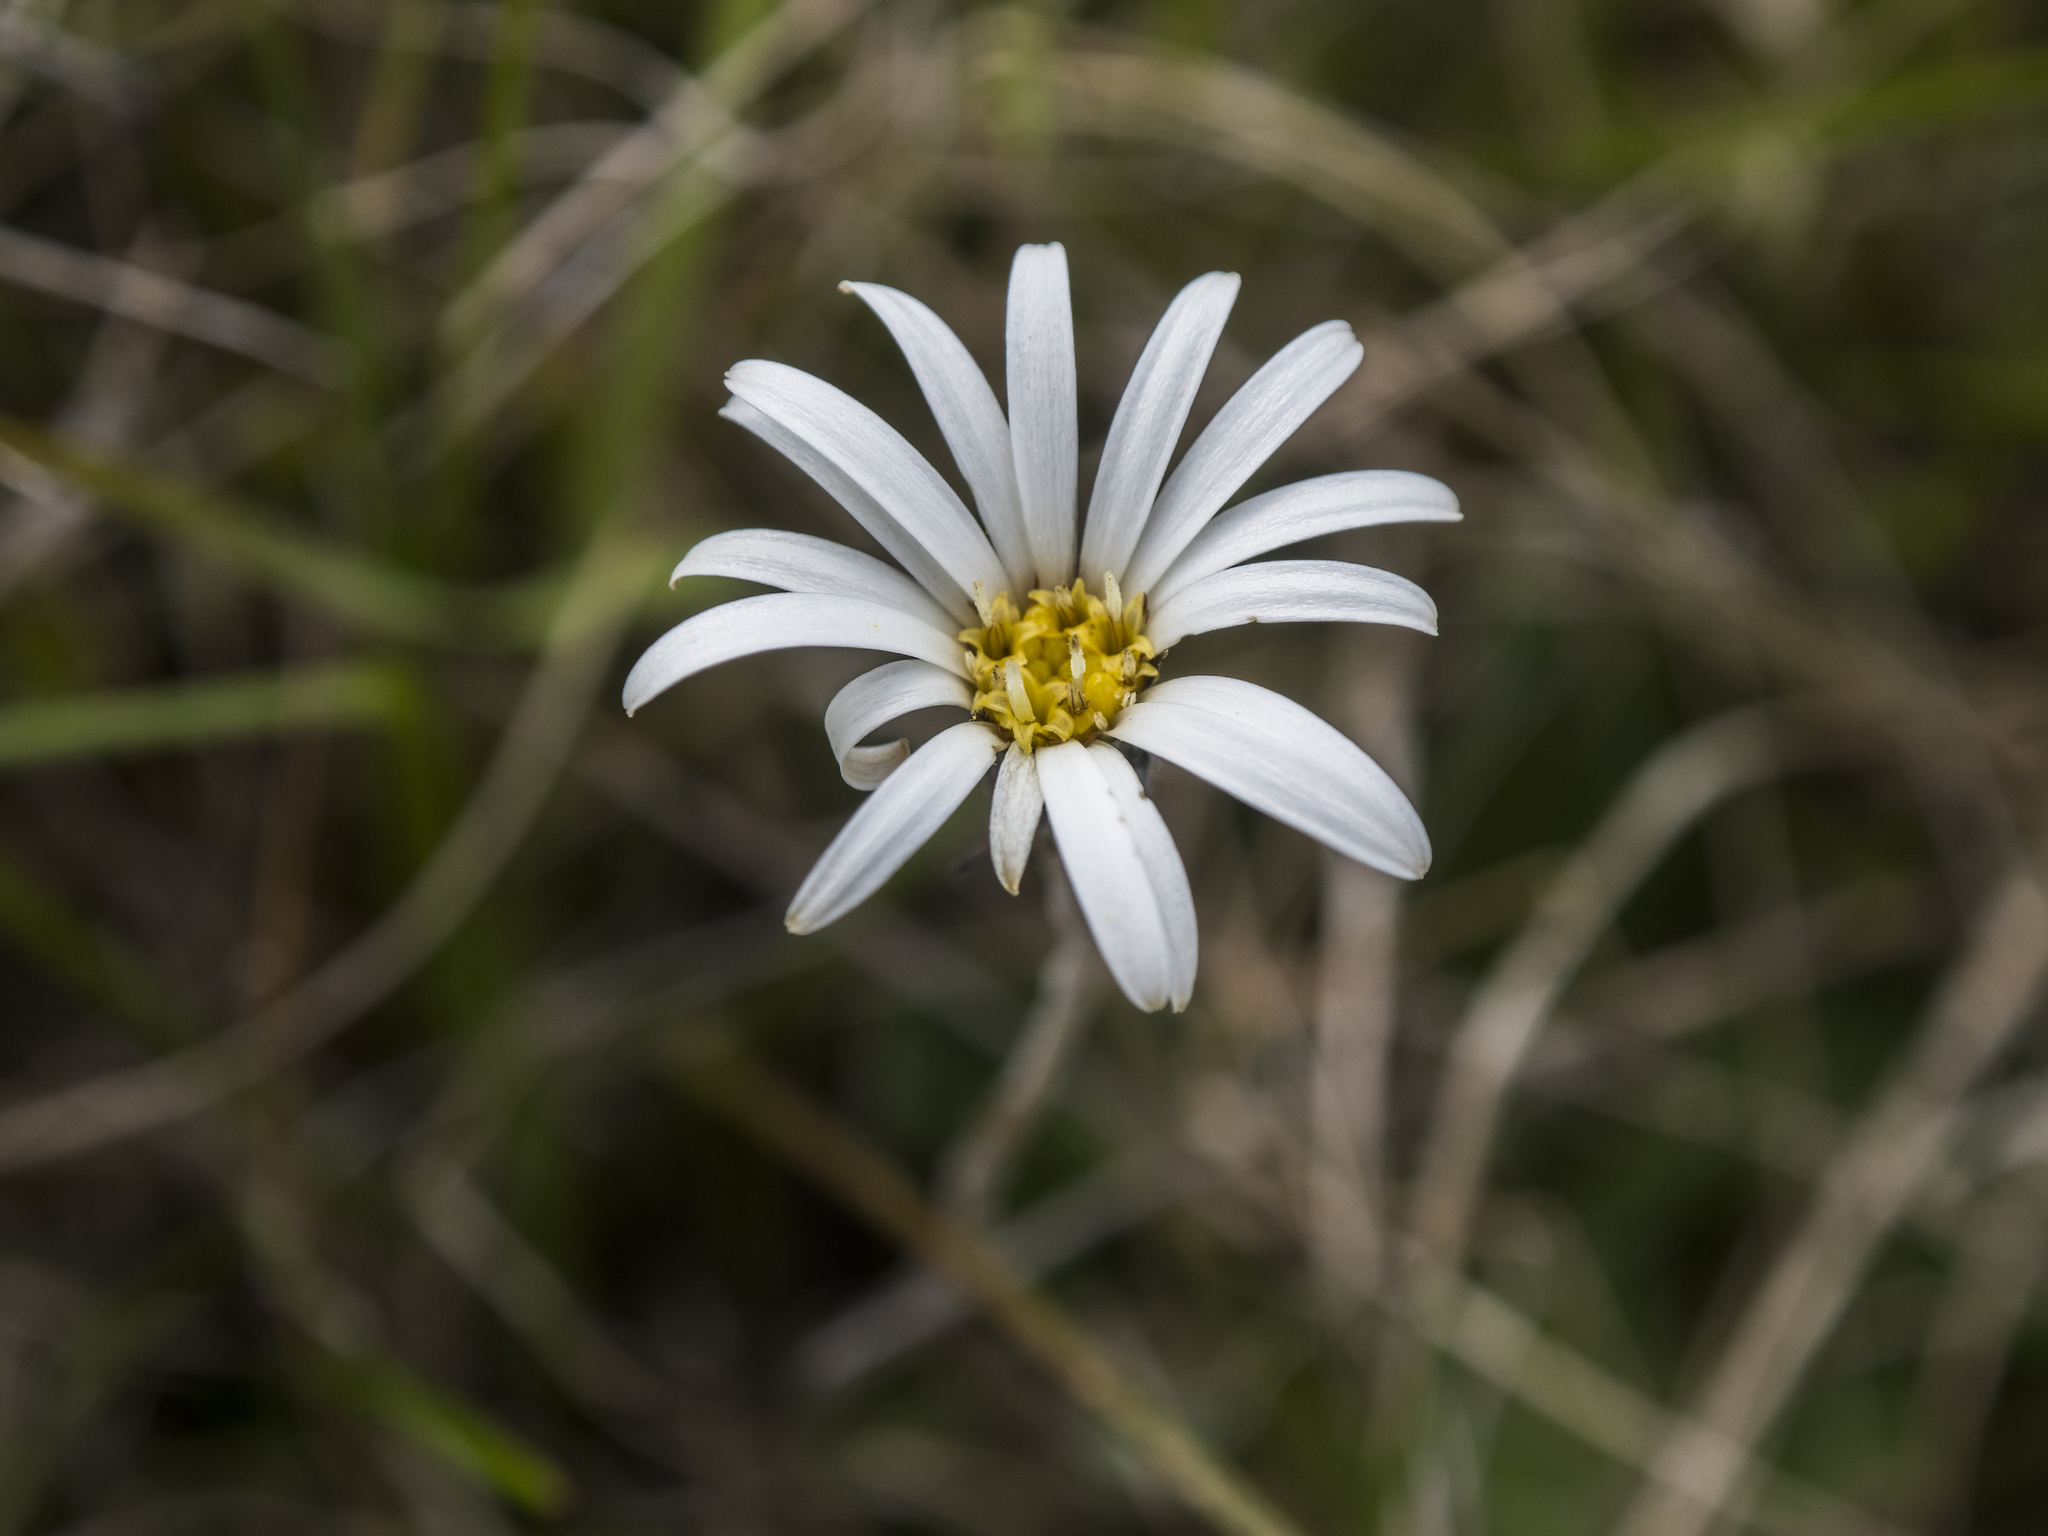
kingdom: Plantae
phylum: Tracheophyta
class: Magnoliopsida
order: Asterales
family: Asteraceae
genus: Celmisia
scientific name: Celmisia gracilenta
